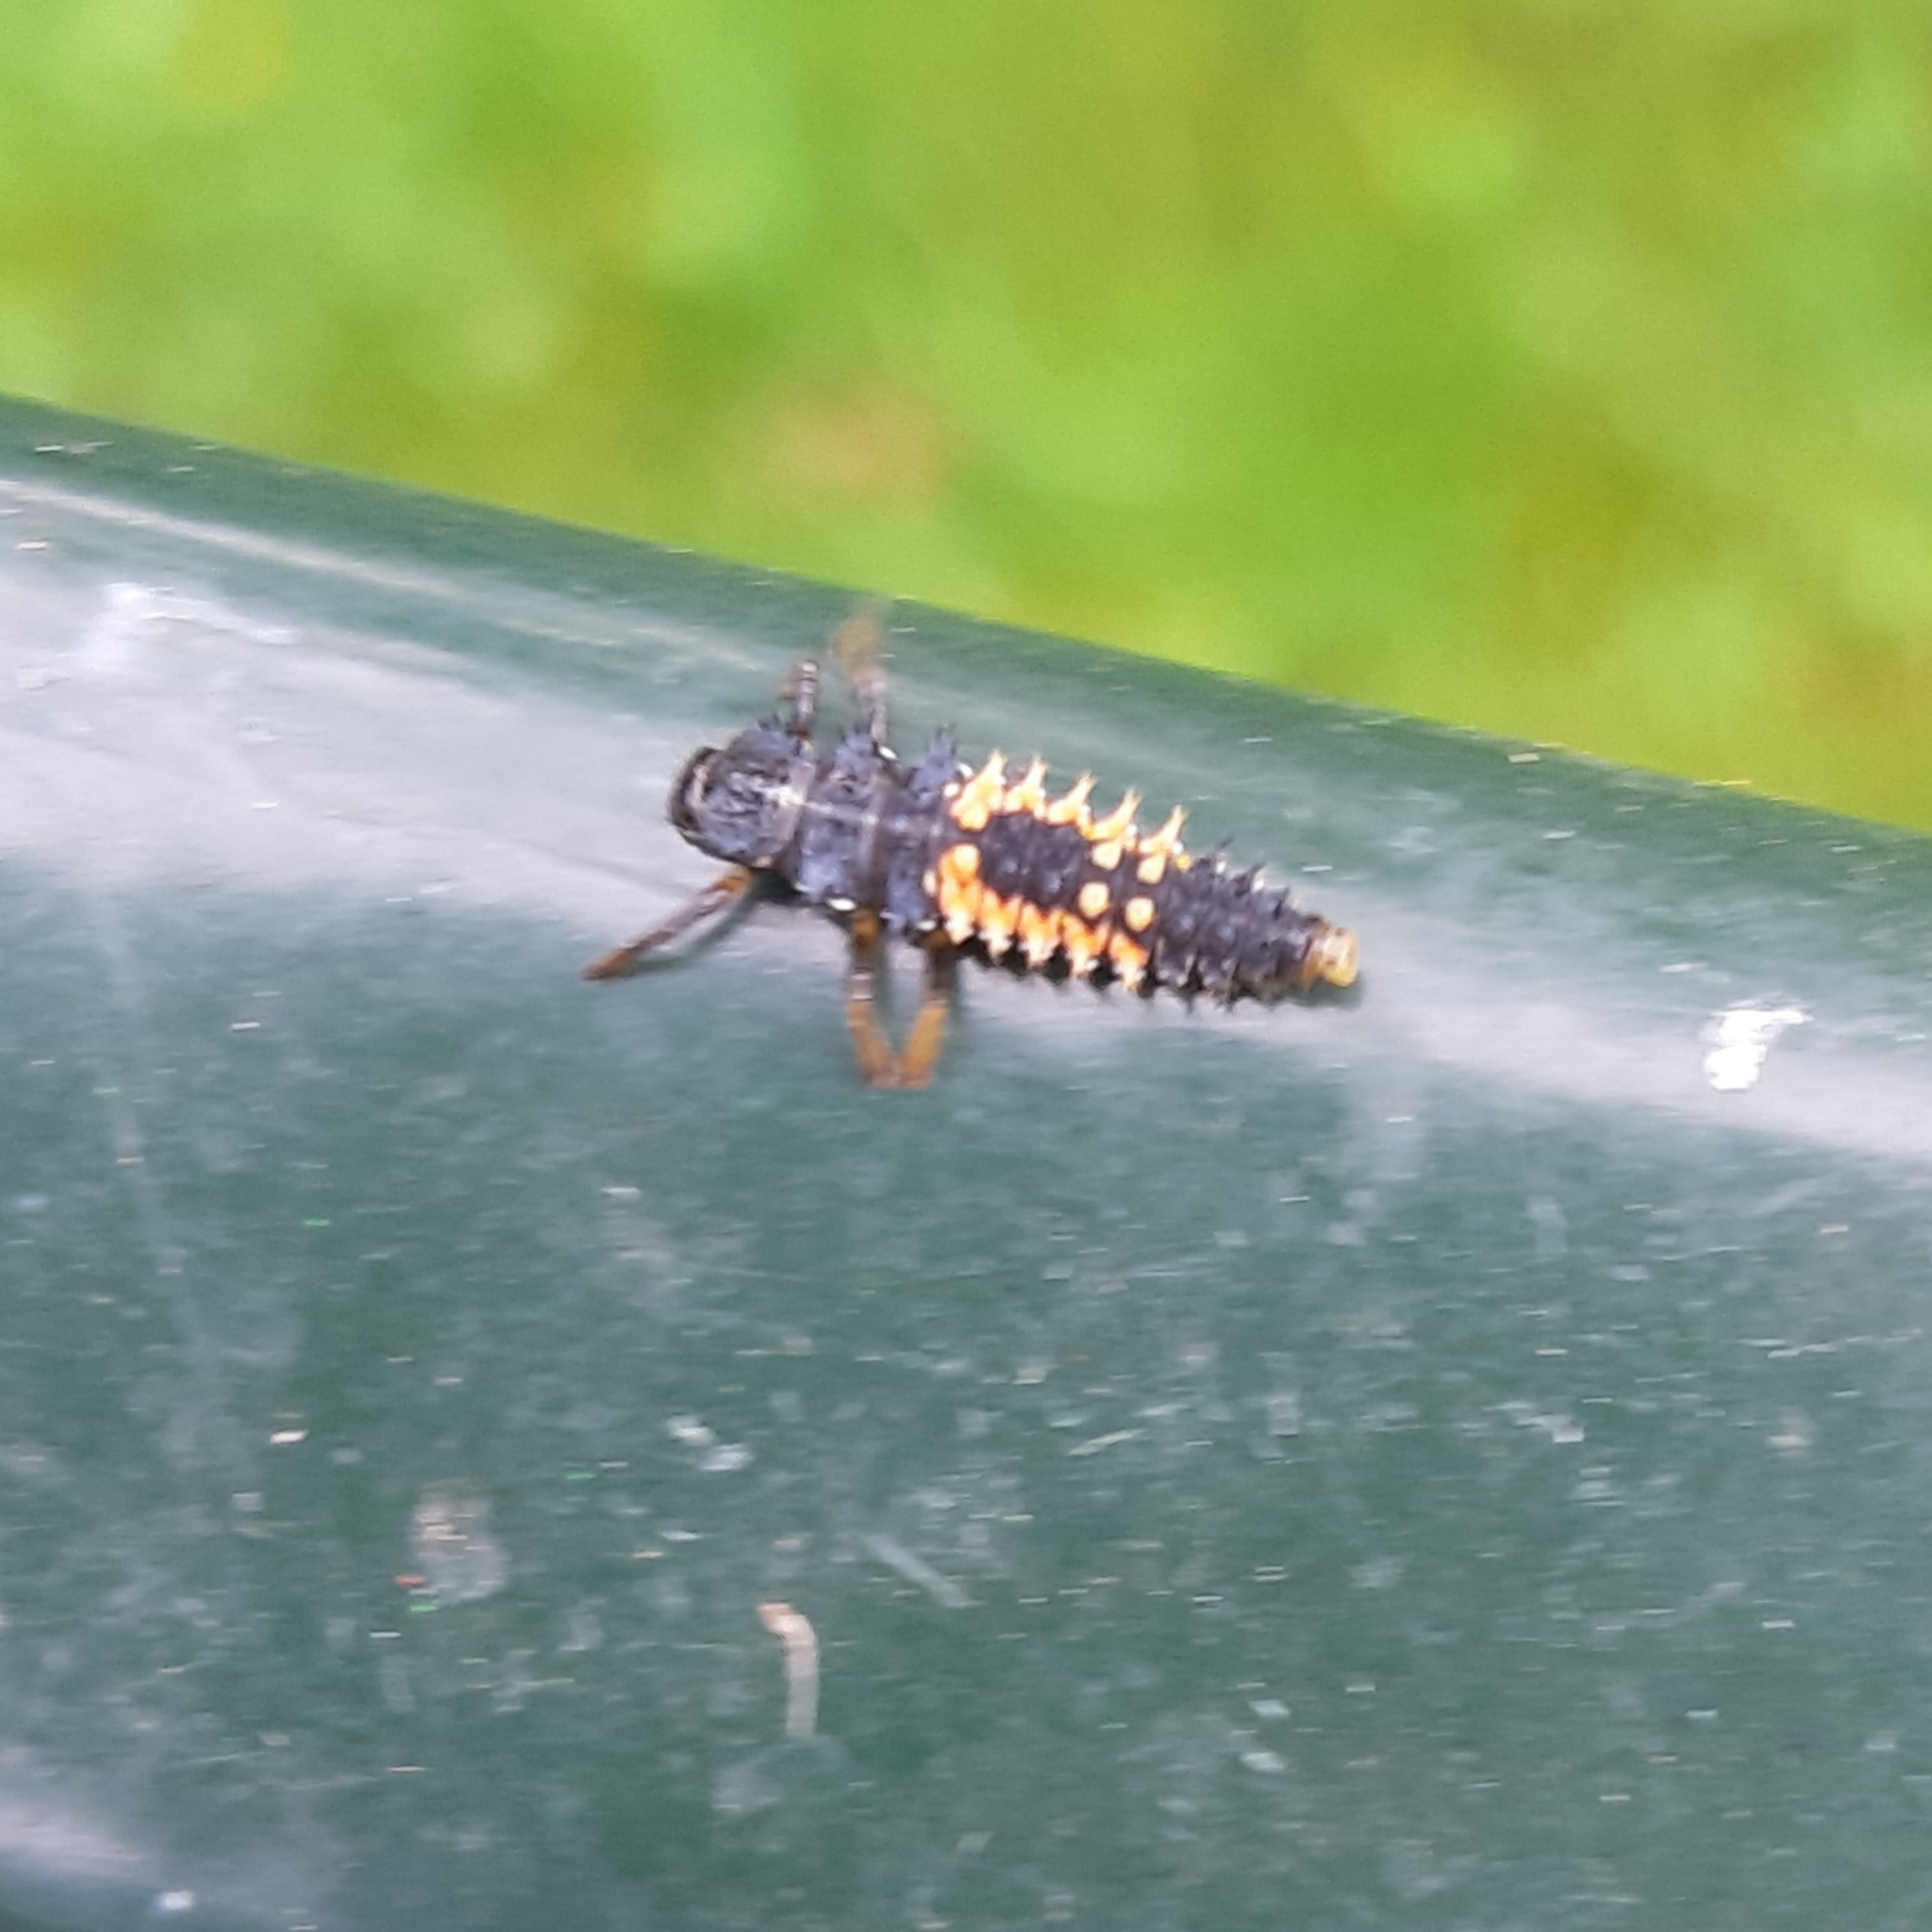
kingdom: Animalia
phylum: Arthropoda
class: Insecta
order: Coleoptera
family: Coccinellidae
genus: Harmonia
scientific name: Harmonia axyridis
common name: Harlequin ladybird
